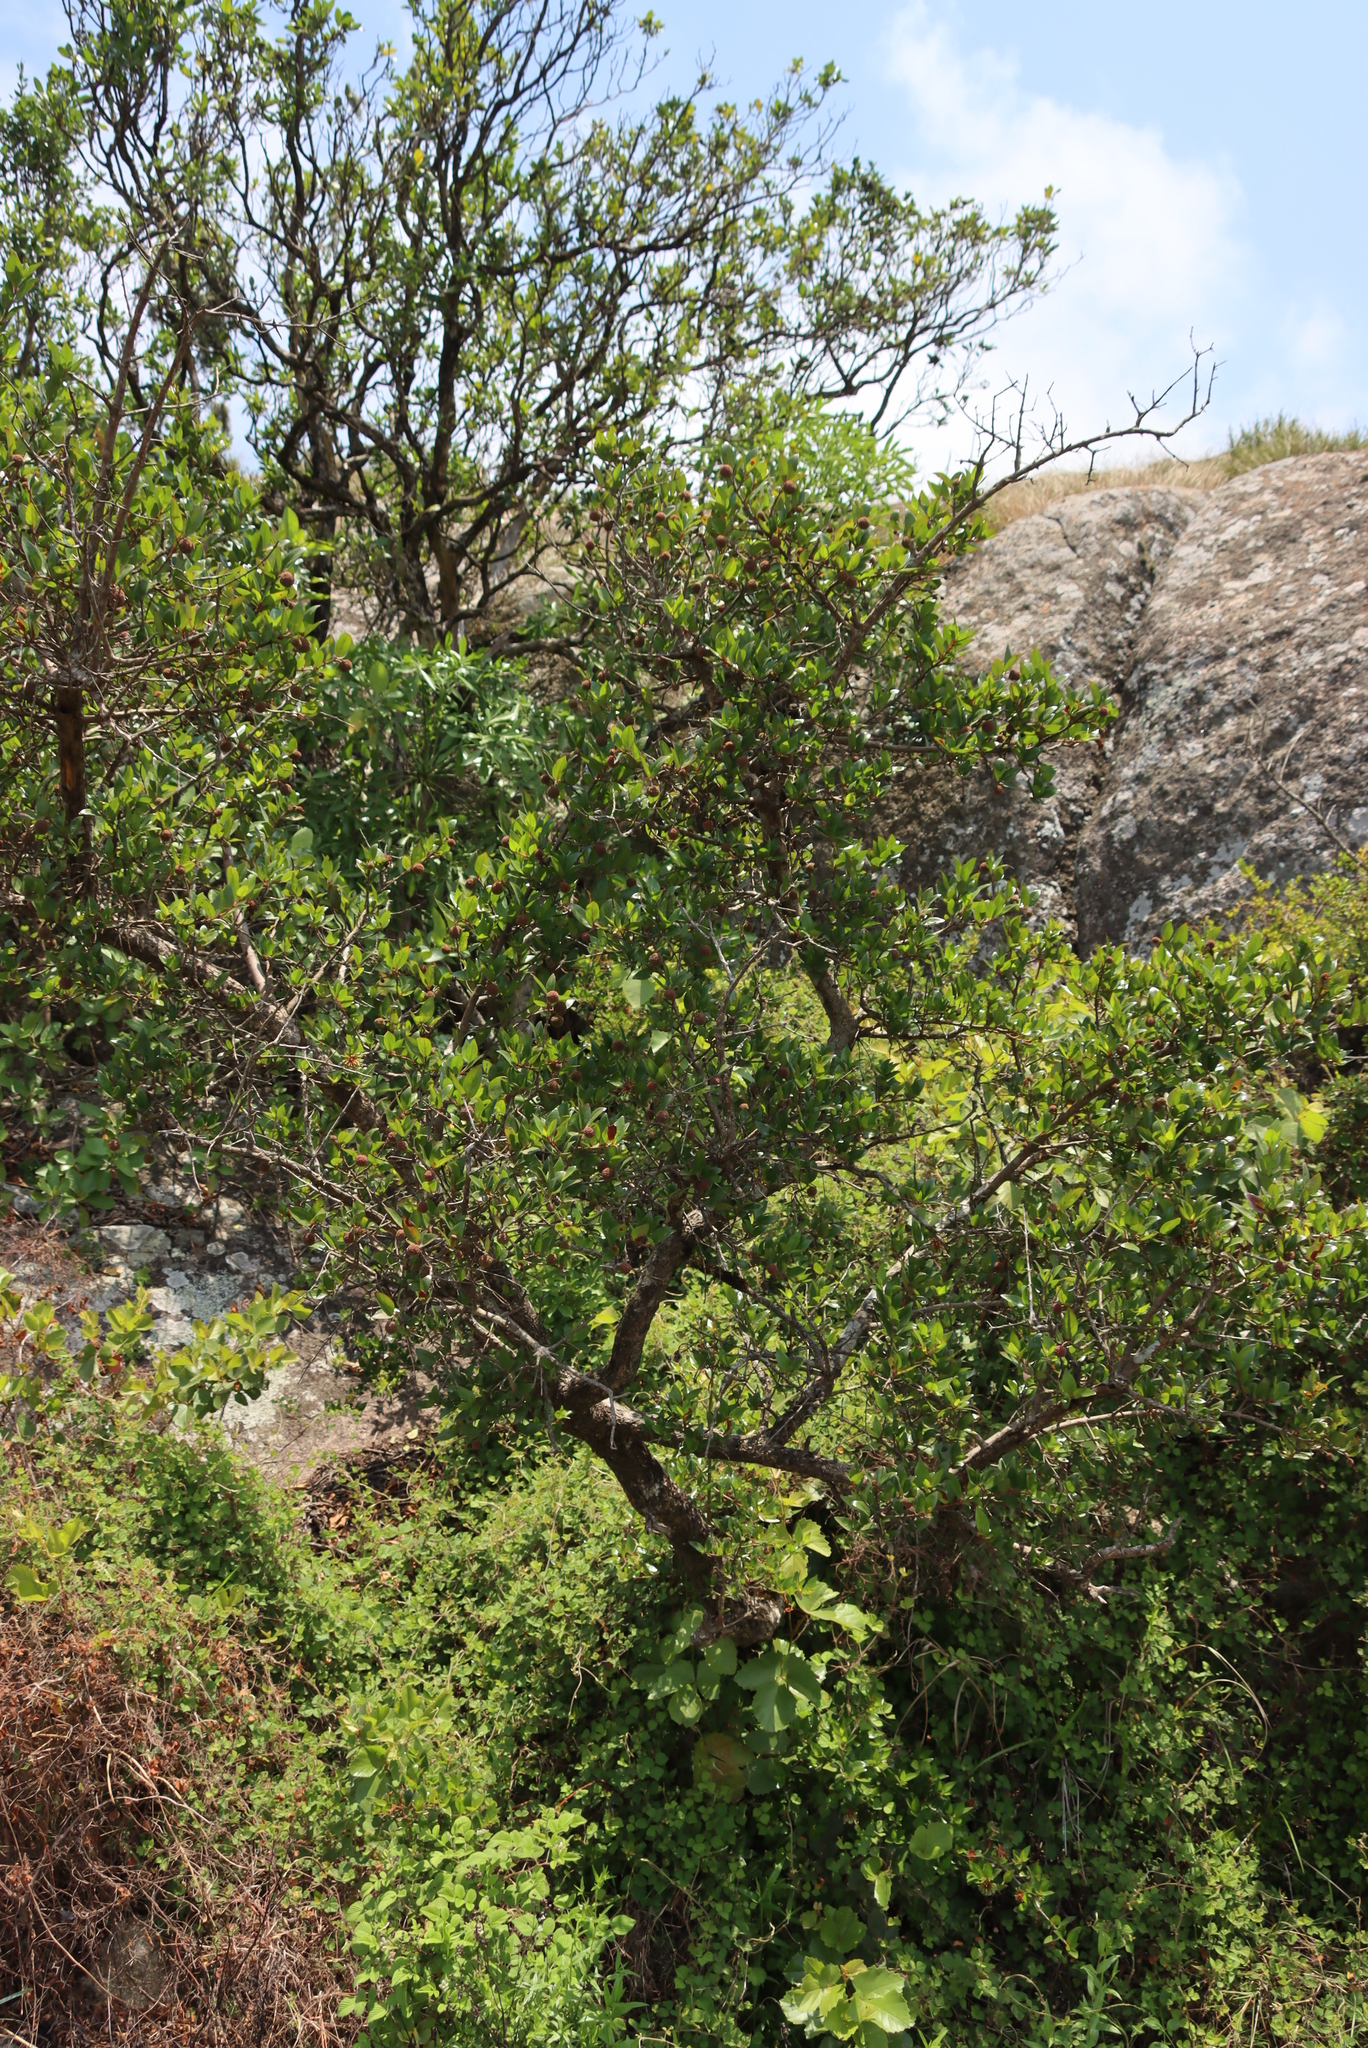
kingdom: Plantae
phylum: Tracheophyta
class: Magnoliopsida
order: Gentianales
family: Rubiaceae
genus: Cephalanthus
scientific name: Cephalanthus natalensis
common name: Strawberry bush
